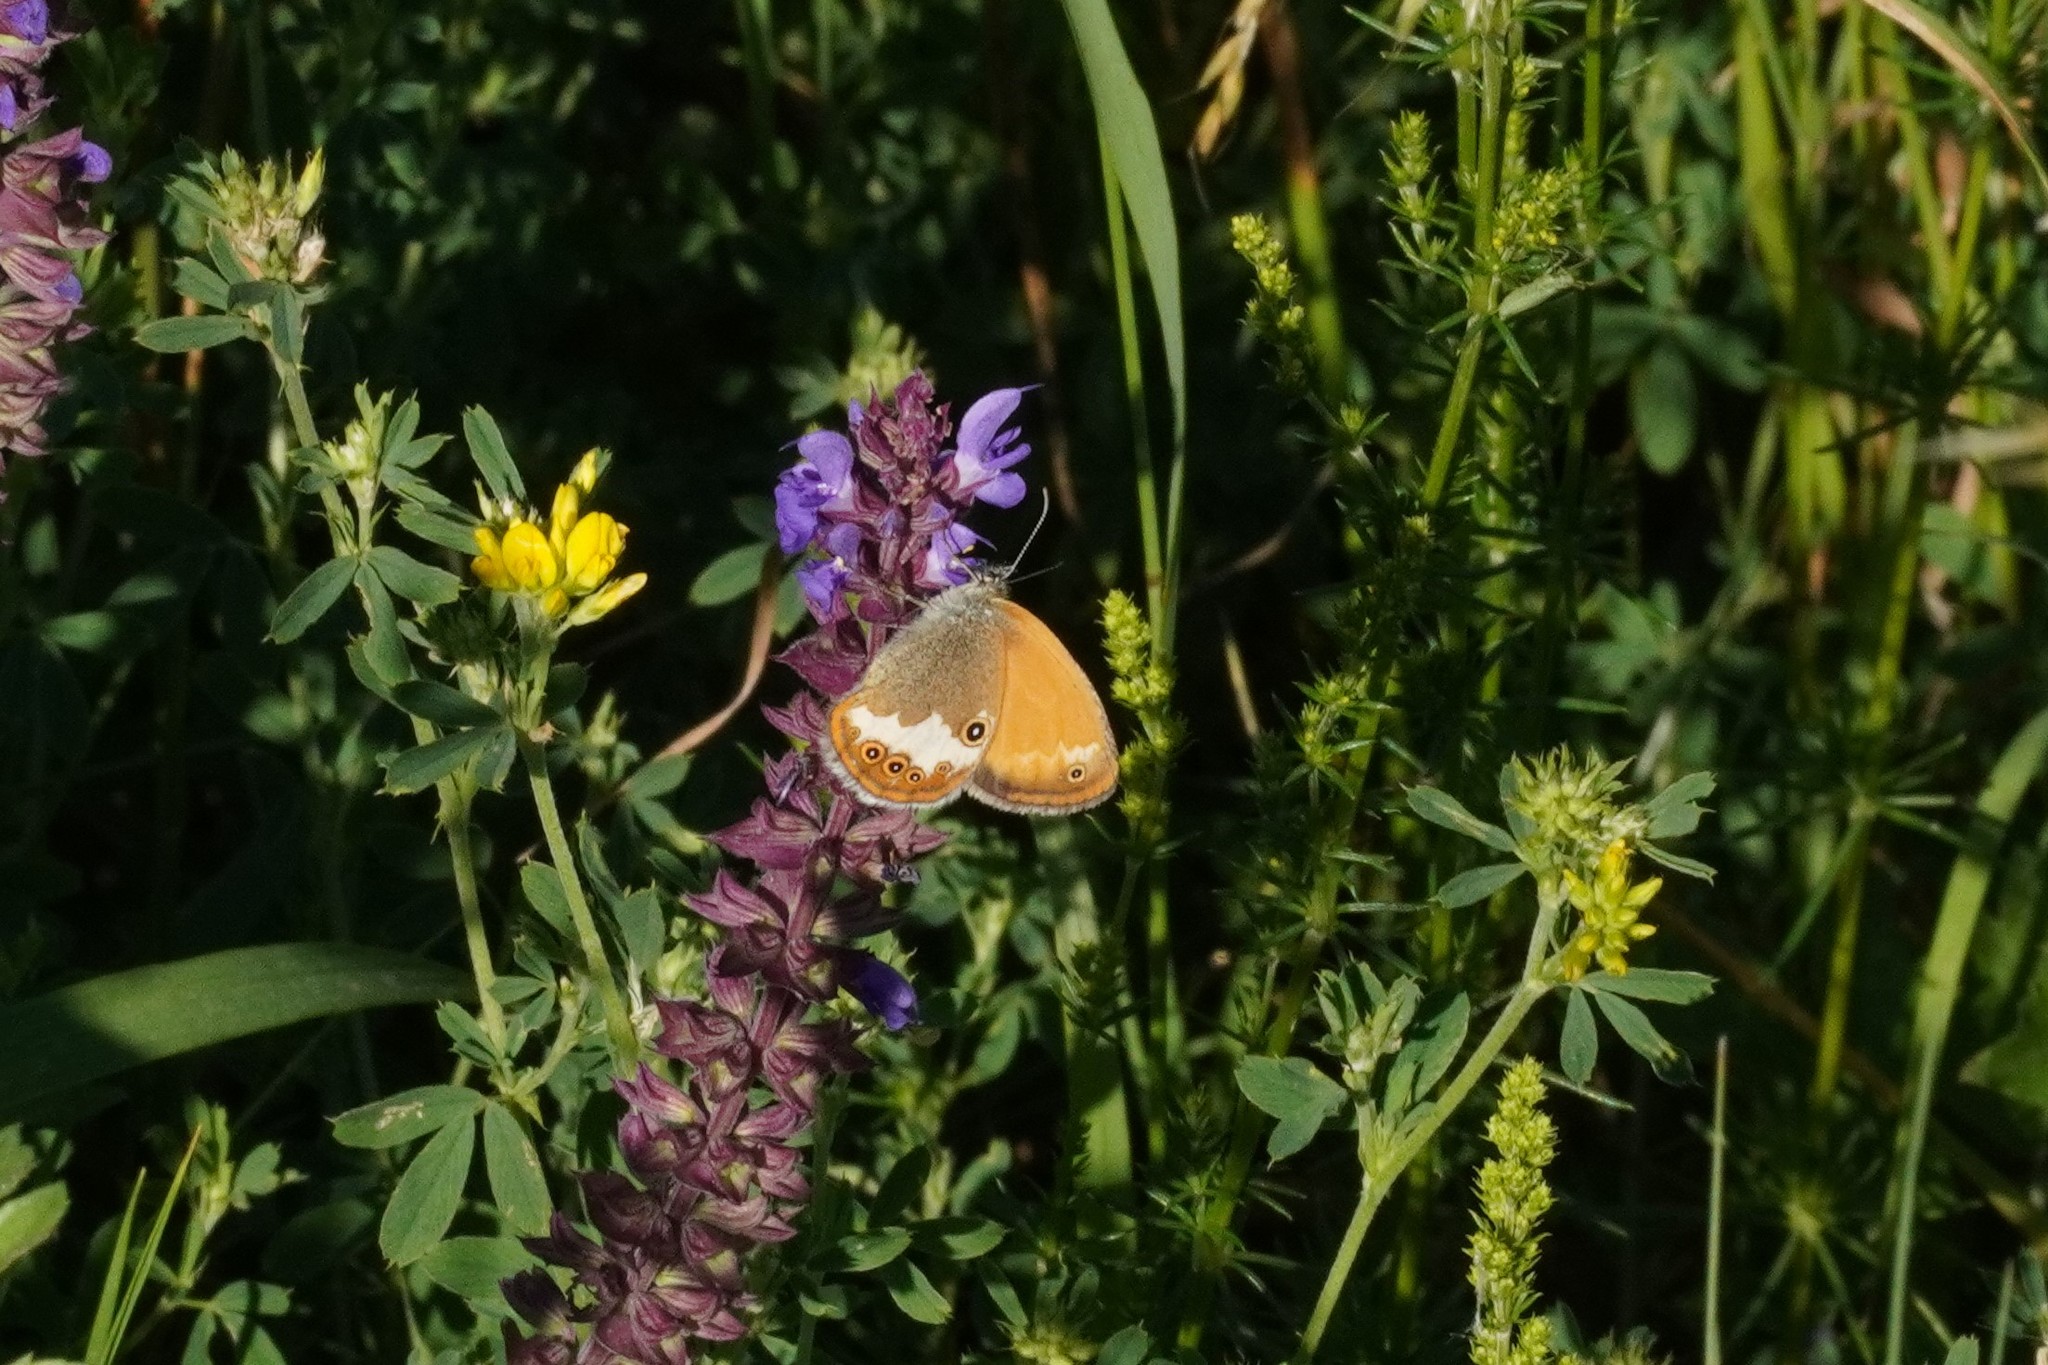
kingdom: Animalia
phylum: Arthropoda
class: Insecta
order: Lepidoptera
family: Nymphalidae
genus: Coenonympha
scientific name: Coenonympha arcania
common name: Pearly heath
